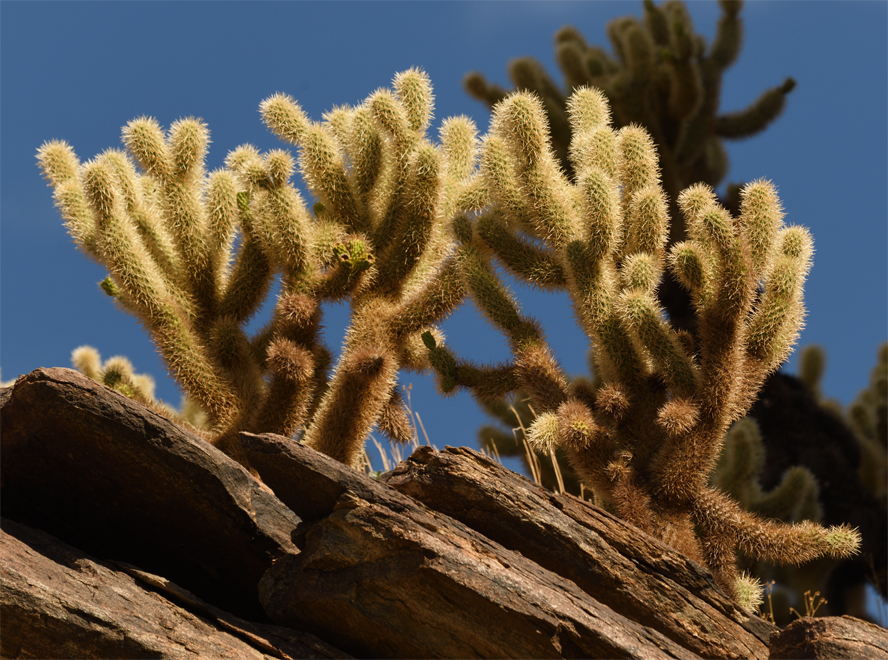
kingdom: Plantae
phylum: Tracheophyta
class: Magnoliopsida
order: Caryophyllales
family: Cactaceae
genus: Cylindropuntia
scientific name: Cylindropuntia fosbergii
